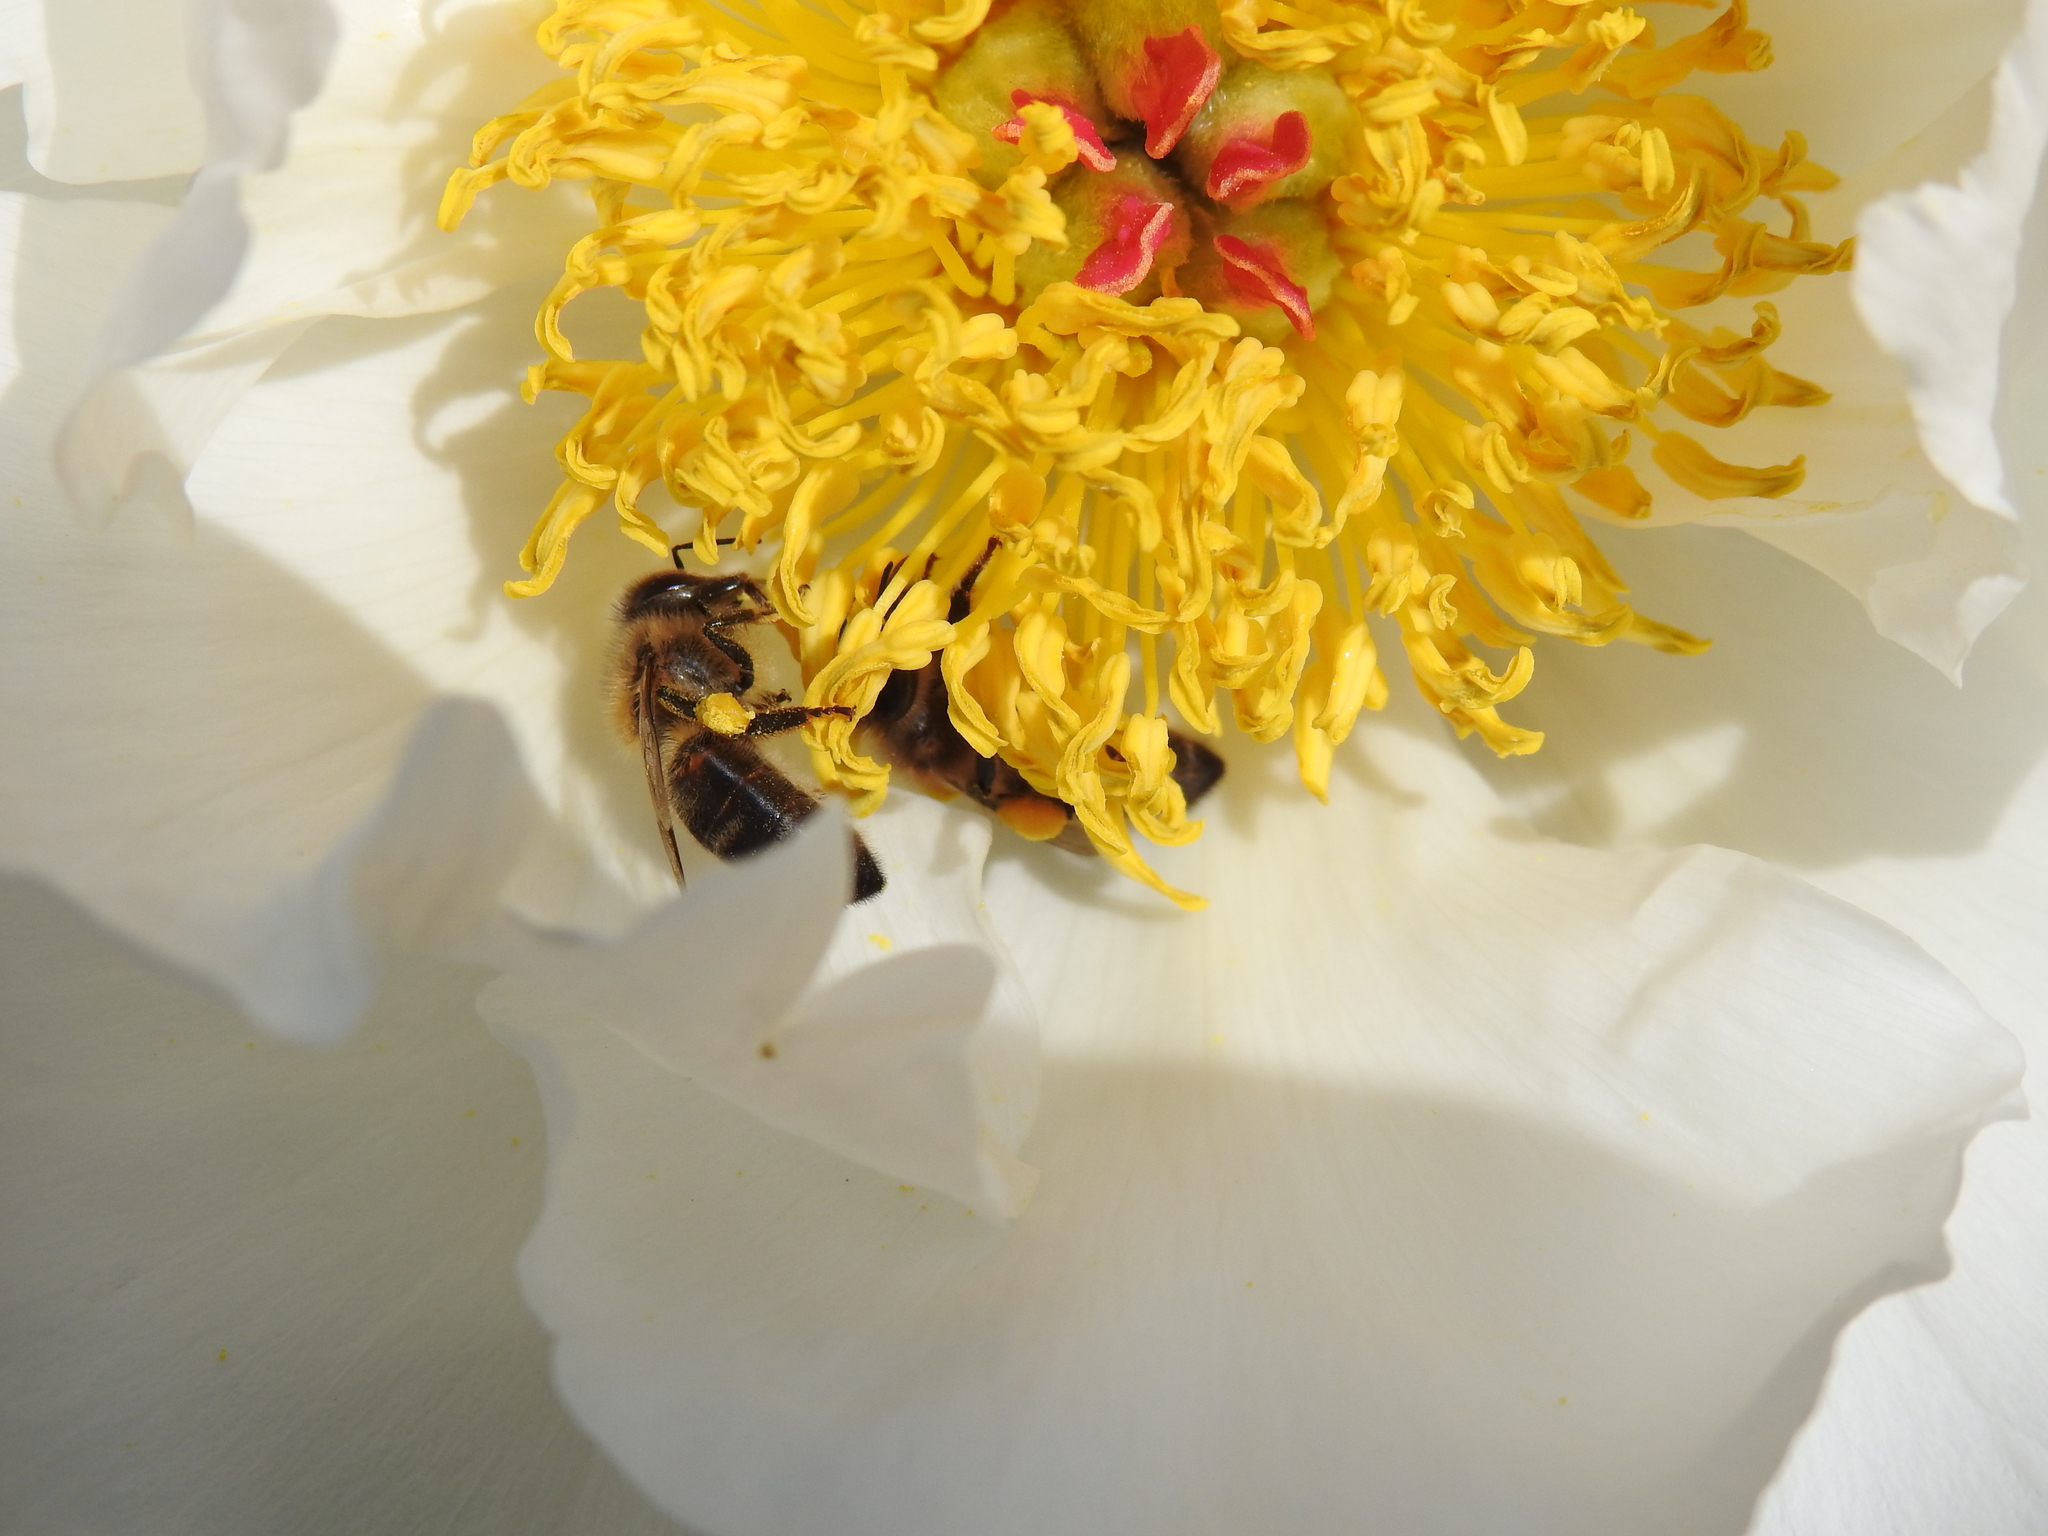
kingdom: Animalia
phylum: Arthropoda
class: Insecta
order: Hymenoptera
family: Apidae
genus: Apis
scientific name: Apis mellifera
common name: Honey bee
